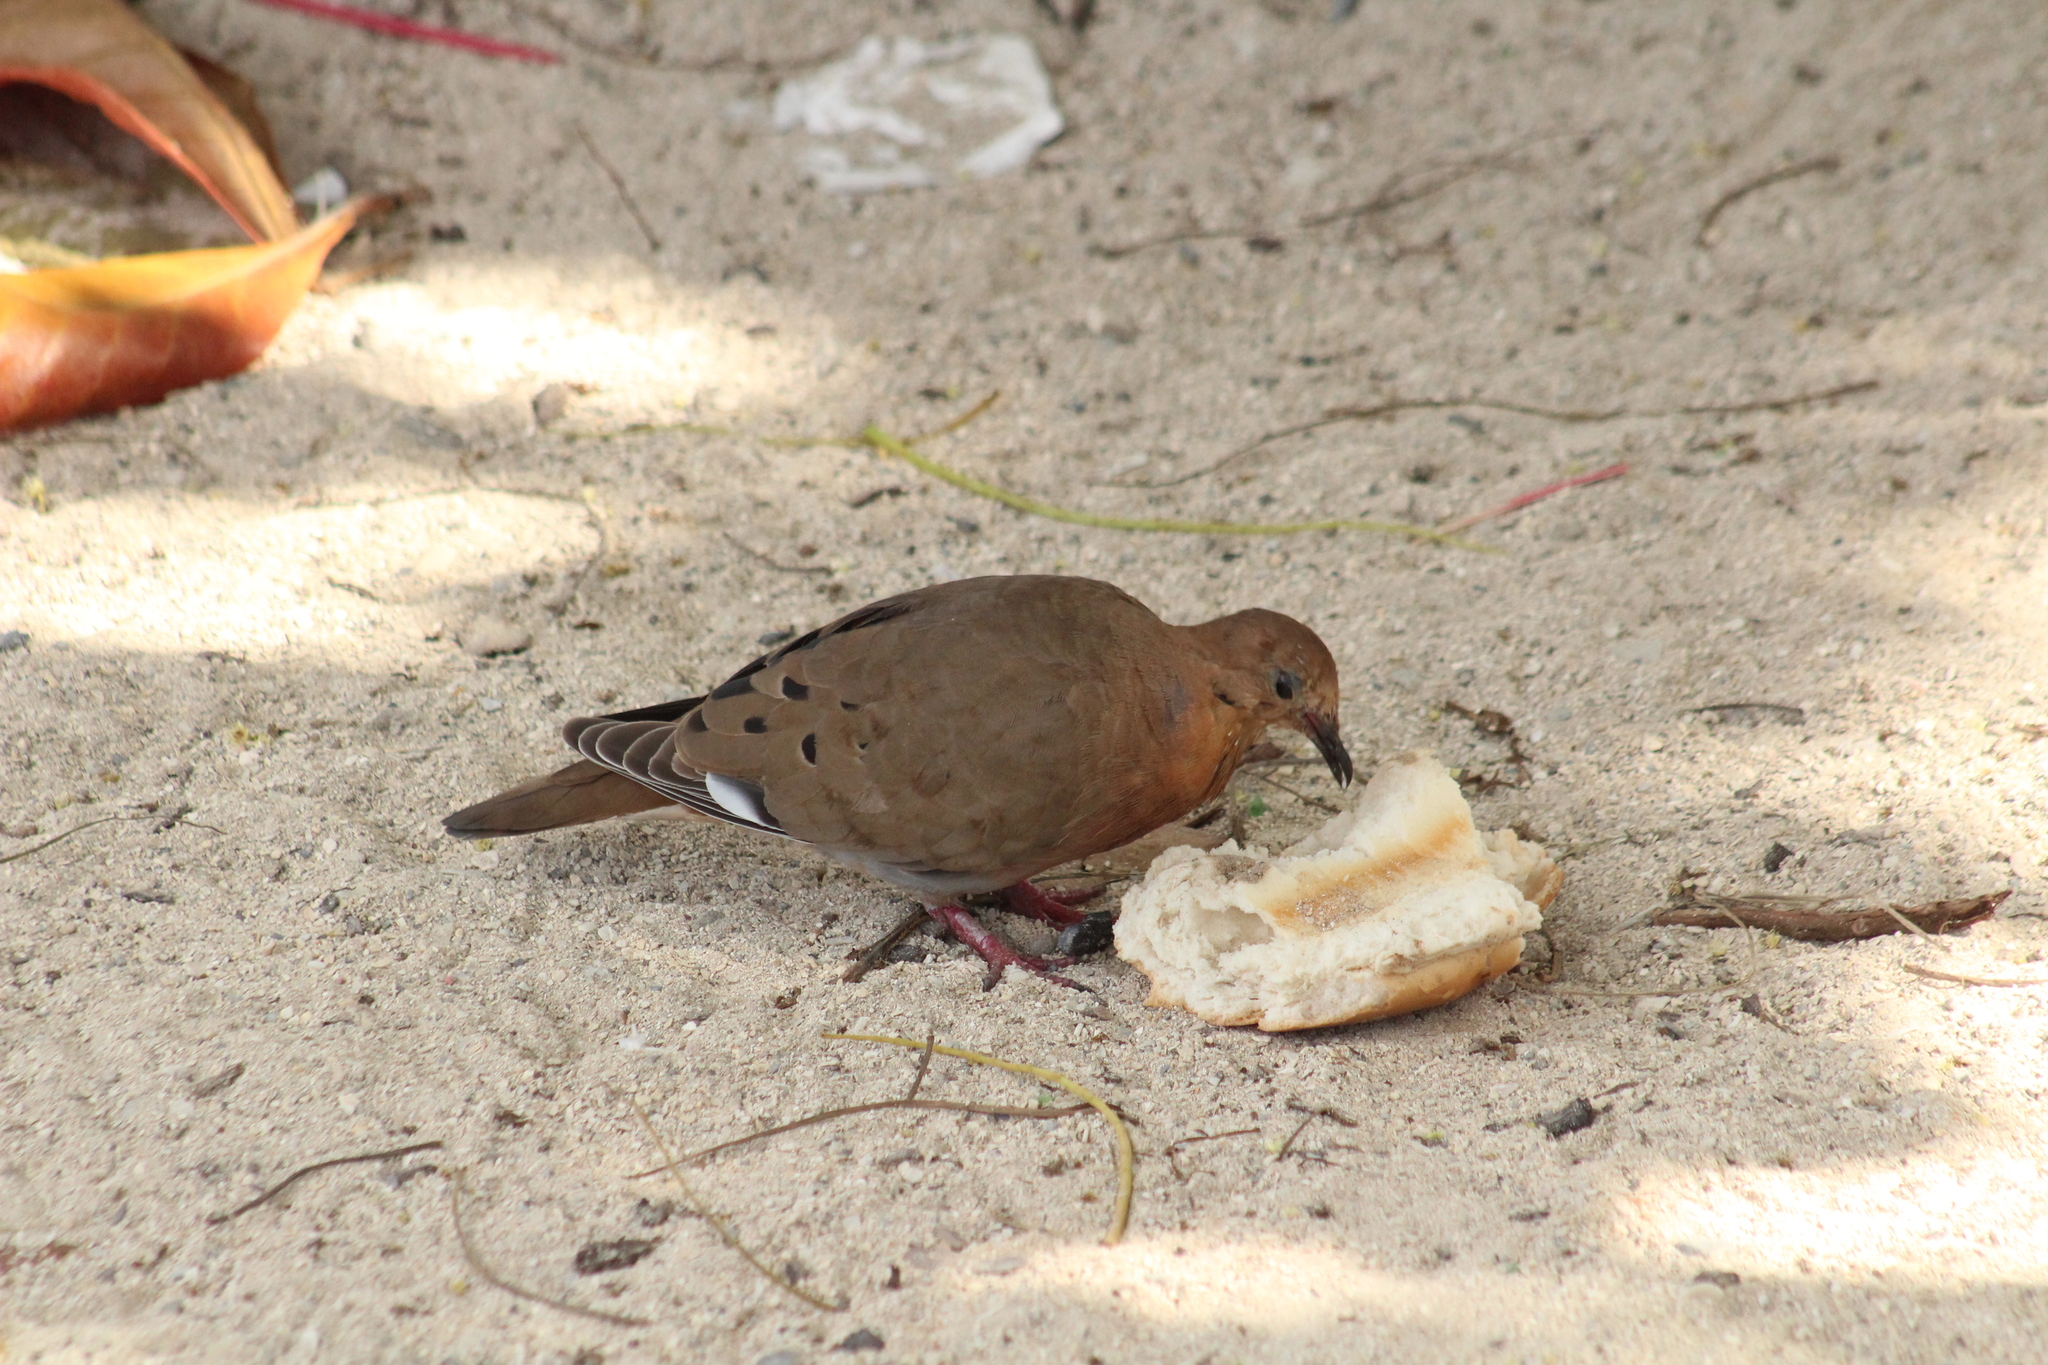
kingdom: Animalia
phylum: Chordata
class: Aves
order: Columbiformes
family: Columbidae
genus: Zenaida
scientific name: Zenaida aurita
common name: Zenaida dove
